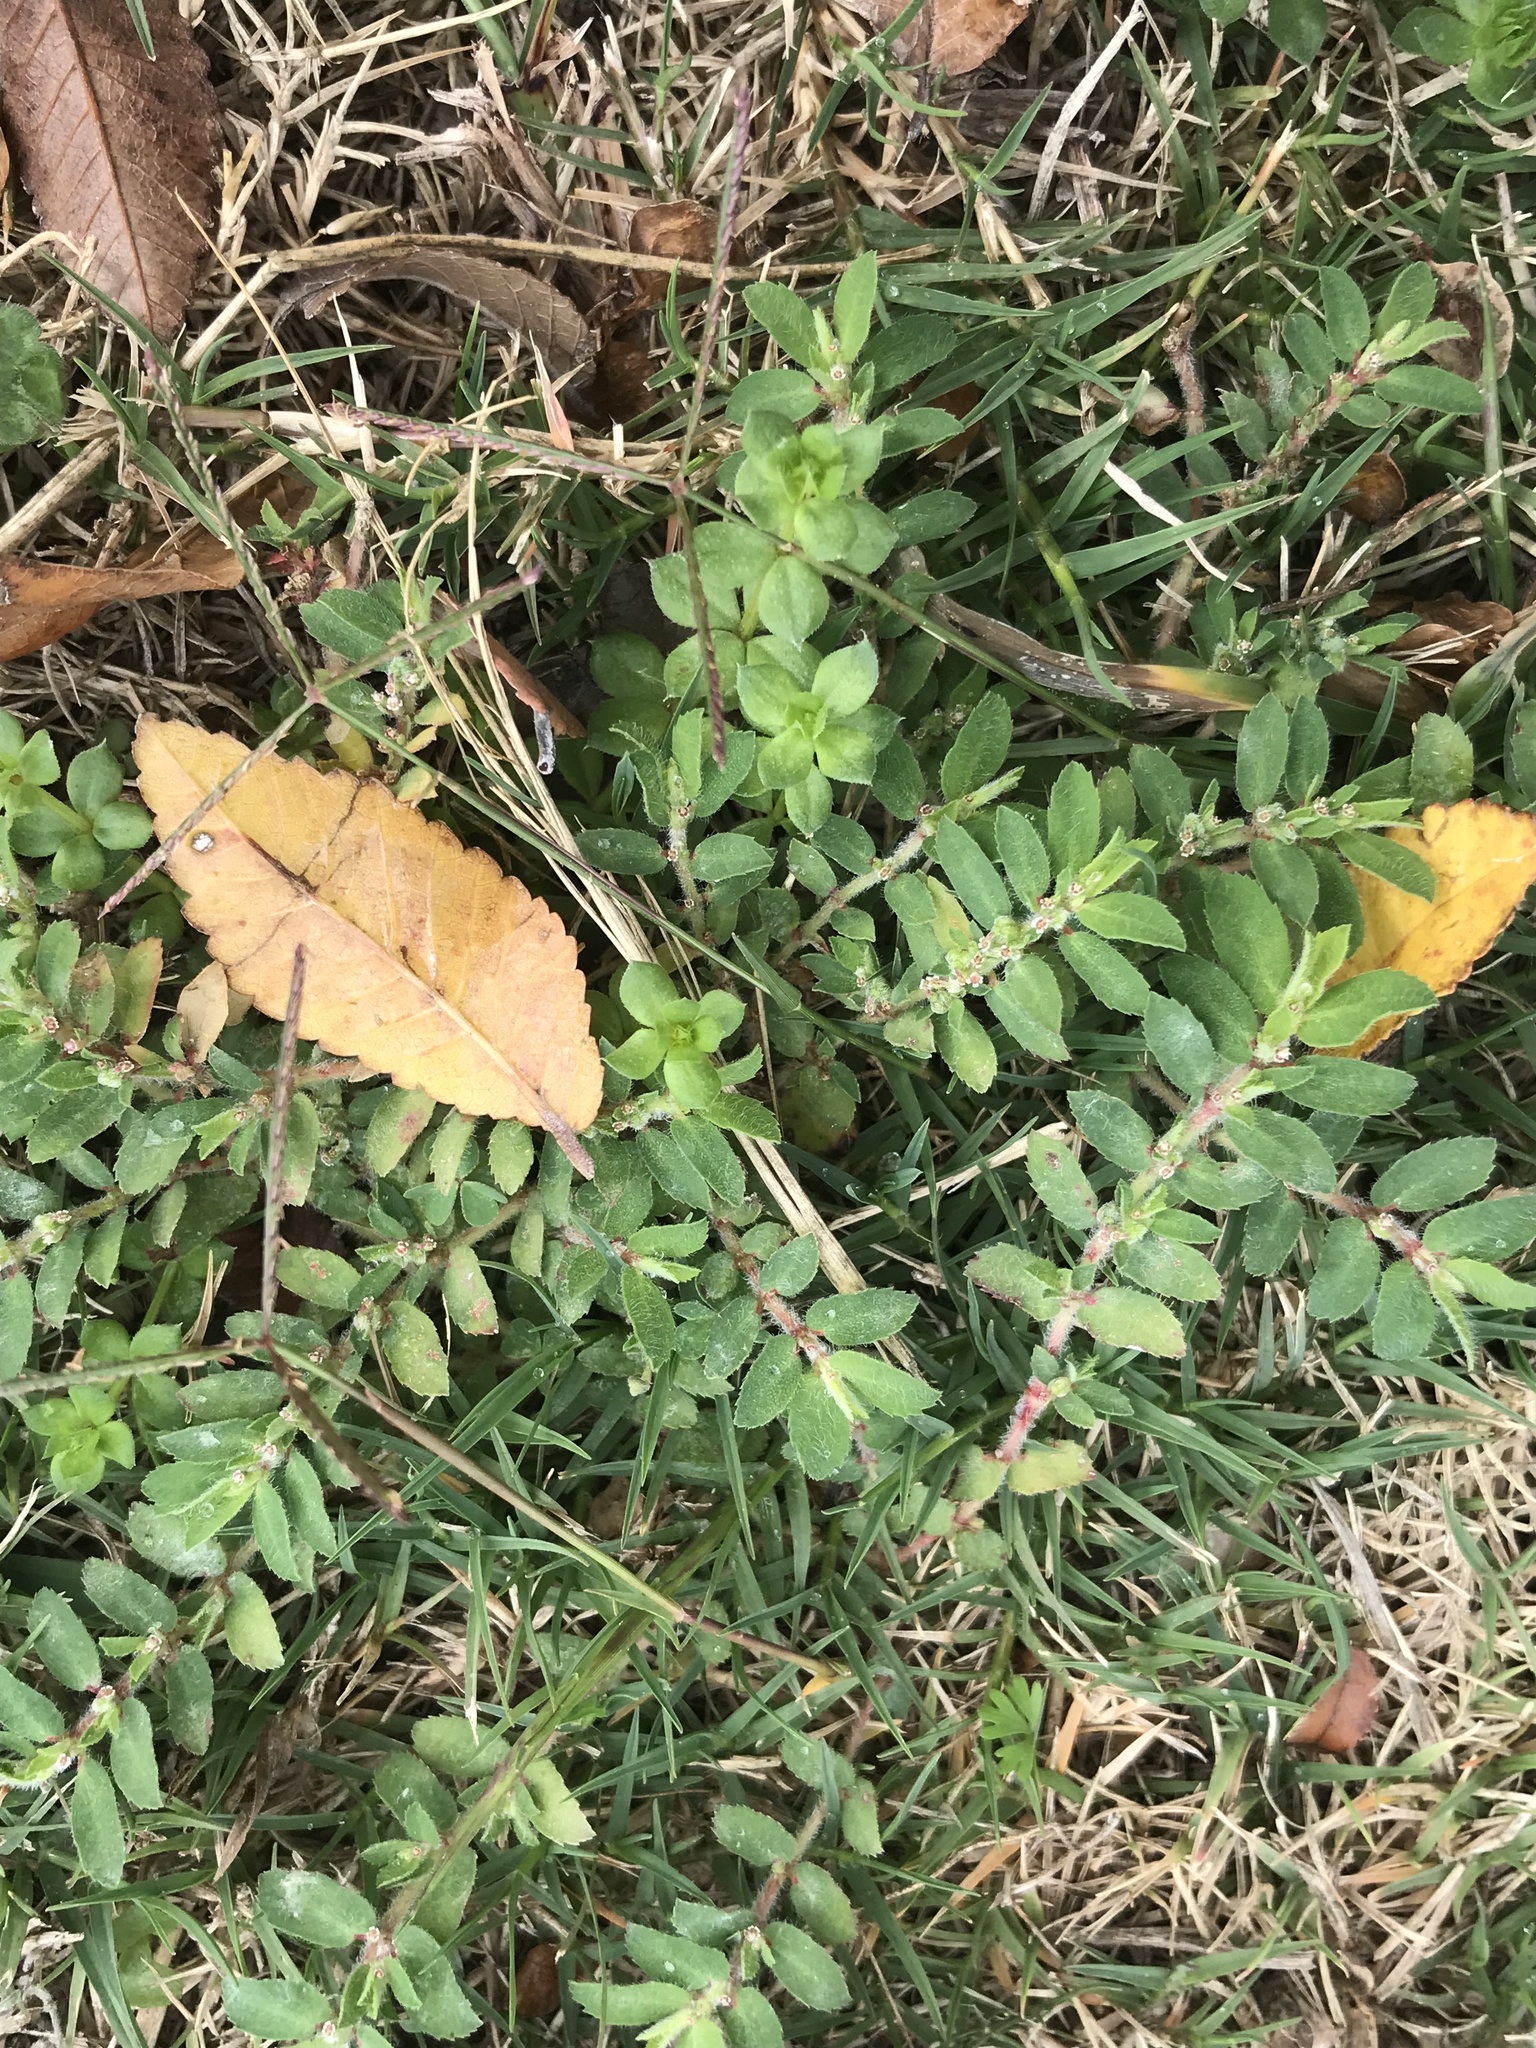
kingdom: Plantae
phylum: Tracheophyta
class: Magnoliopsida
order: Malpighiales
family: Euphorbiaceae
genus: Euphorbia
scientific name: Euphorbia stictospora
